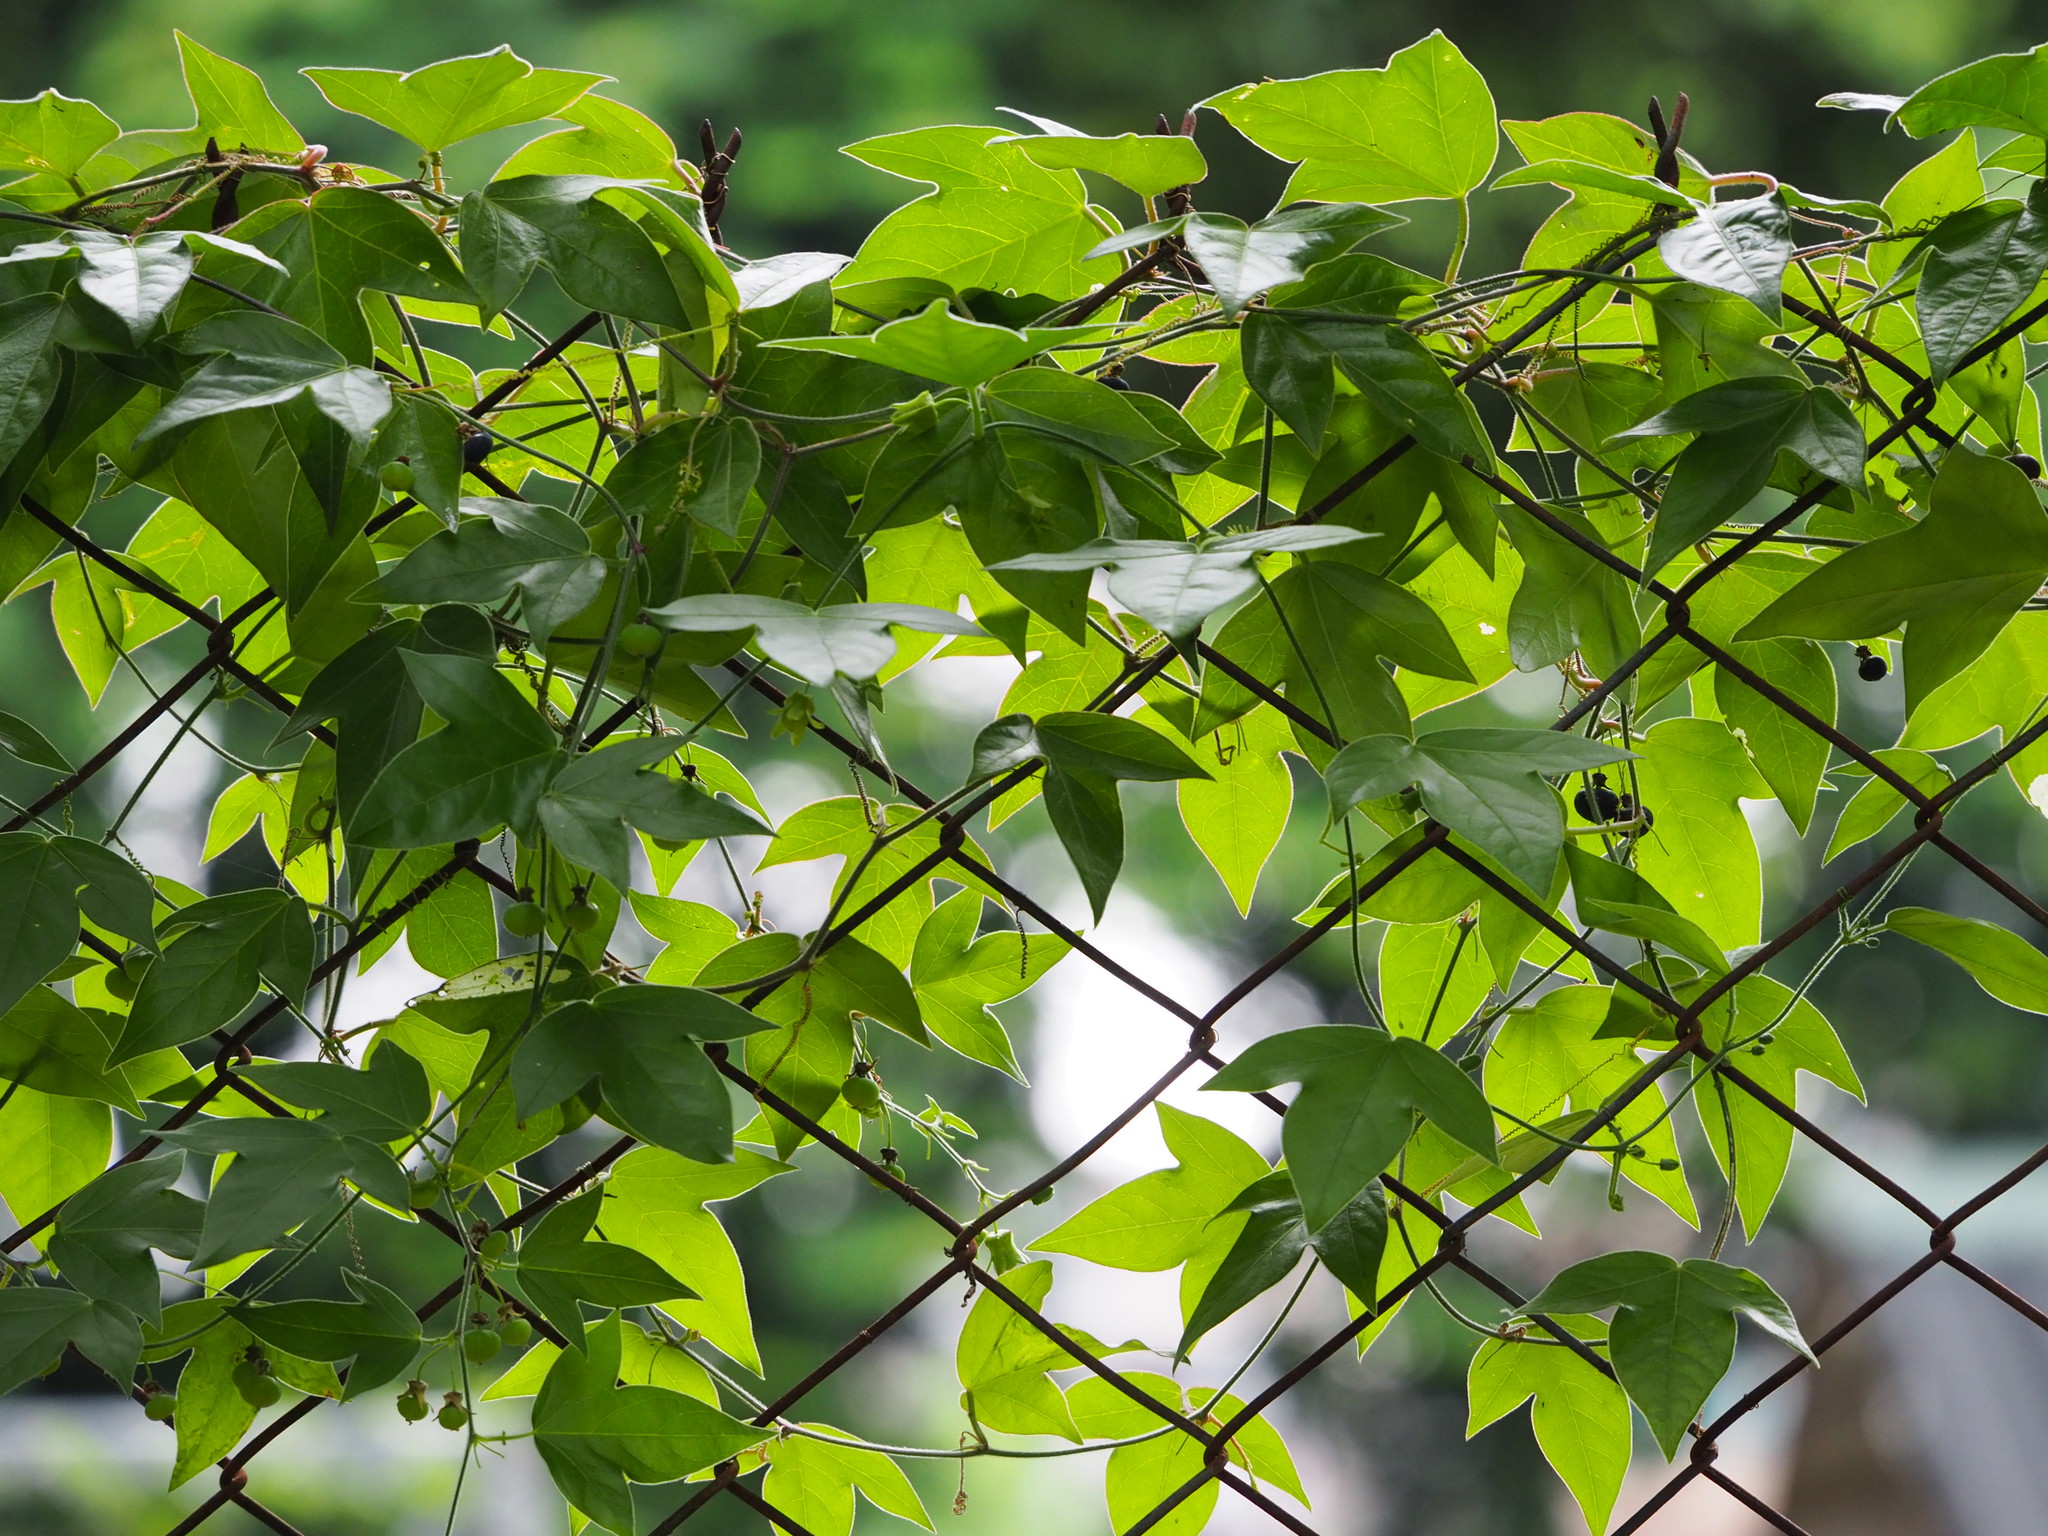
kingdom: Plantae
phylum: Tracheophyta
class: Magnoliopsida
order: Malpighiales
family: Passifloraceae
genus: Passiflora
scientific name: Passiflora suberosa
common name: Wild passionfruit
